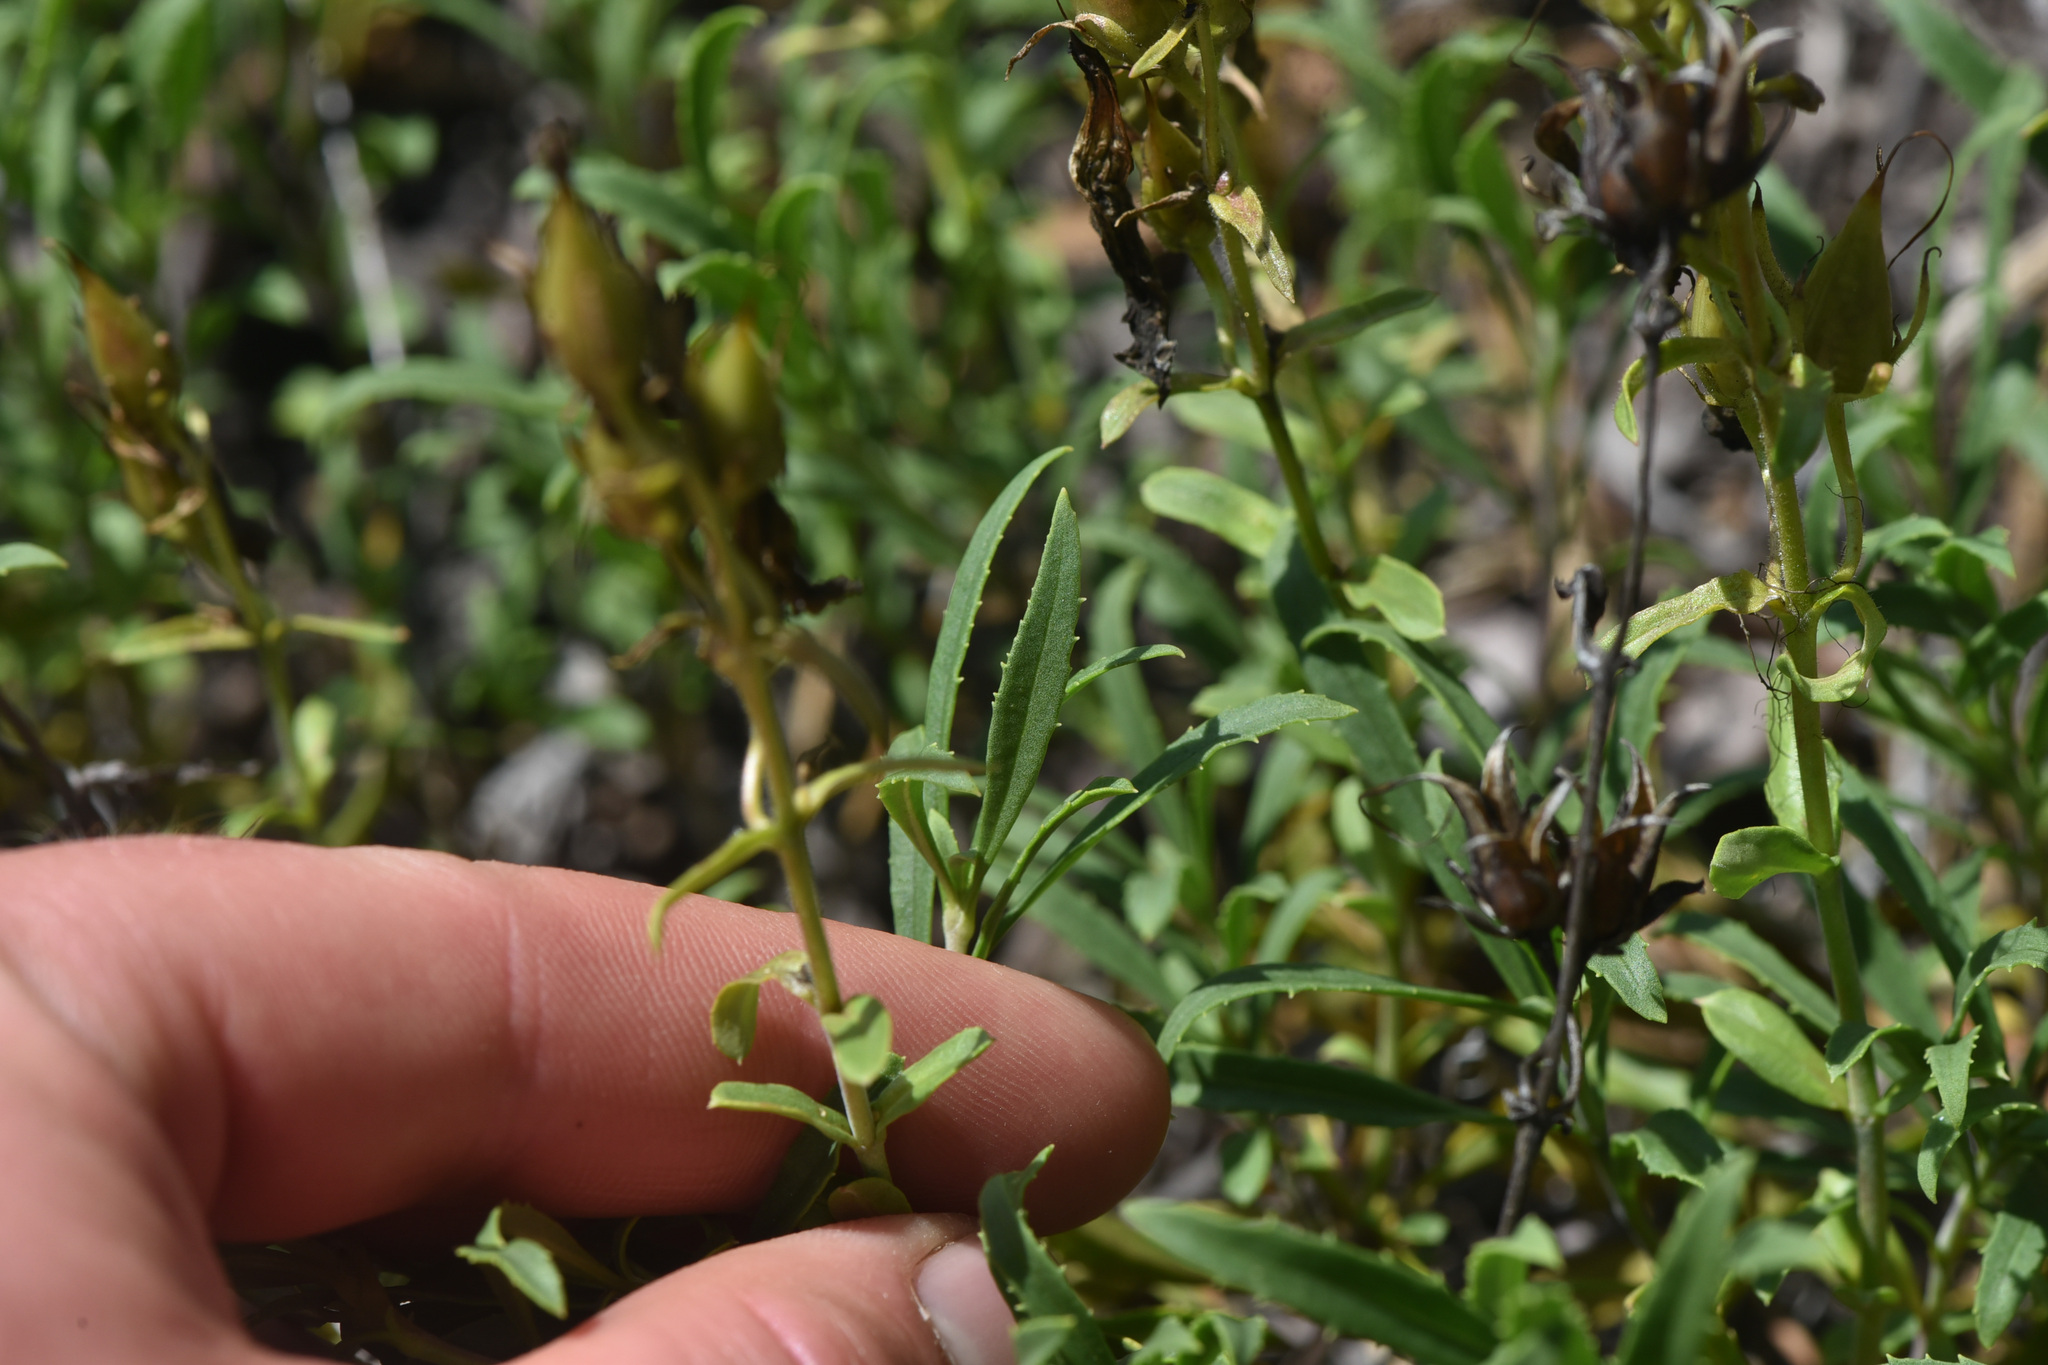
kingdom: Plantae
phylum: Tracheophyta
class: Magnoliopsida
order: Lamiales
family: Plantaginaceae
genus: Penstemon
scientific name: Penstemon fruticosus
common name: Bush penstemon
